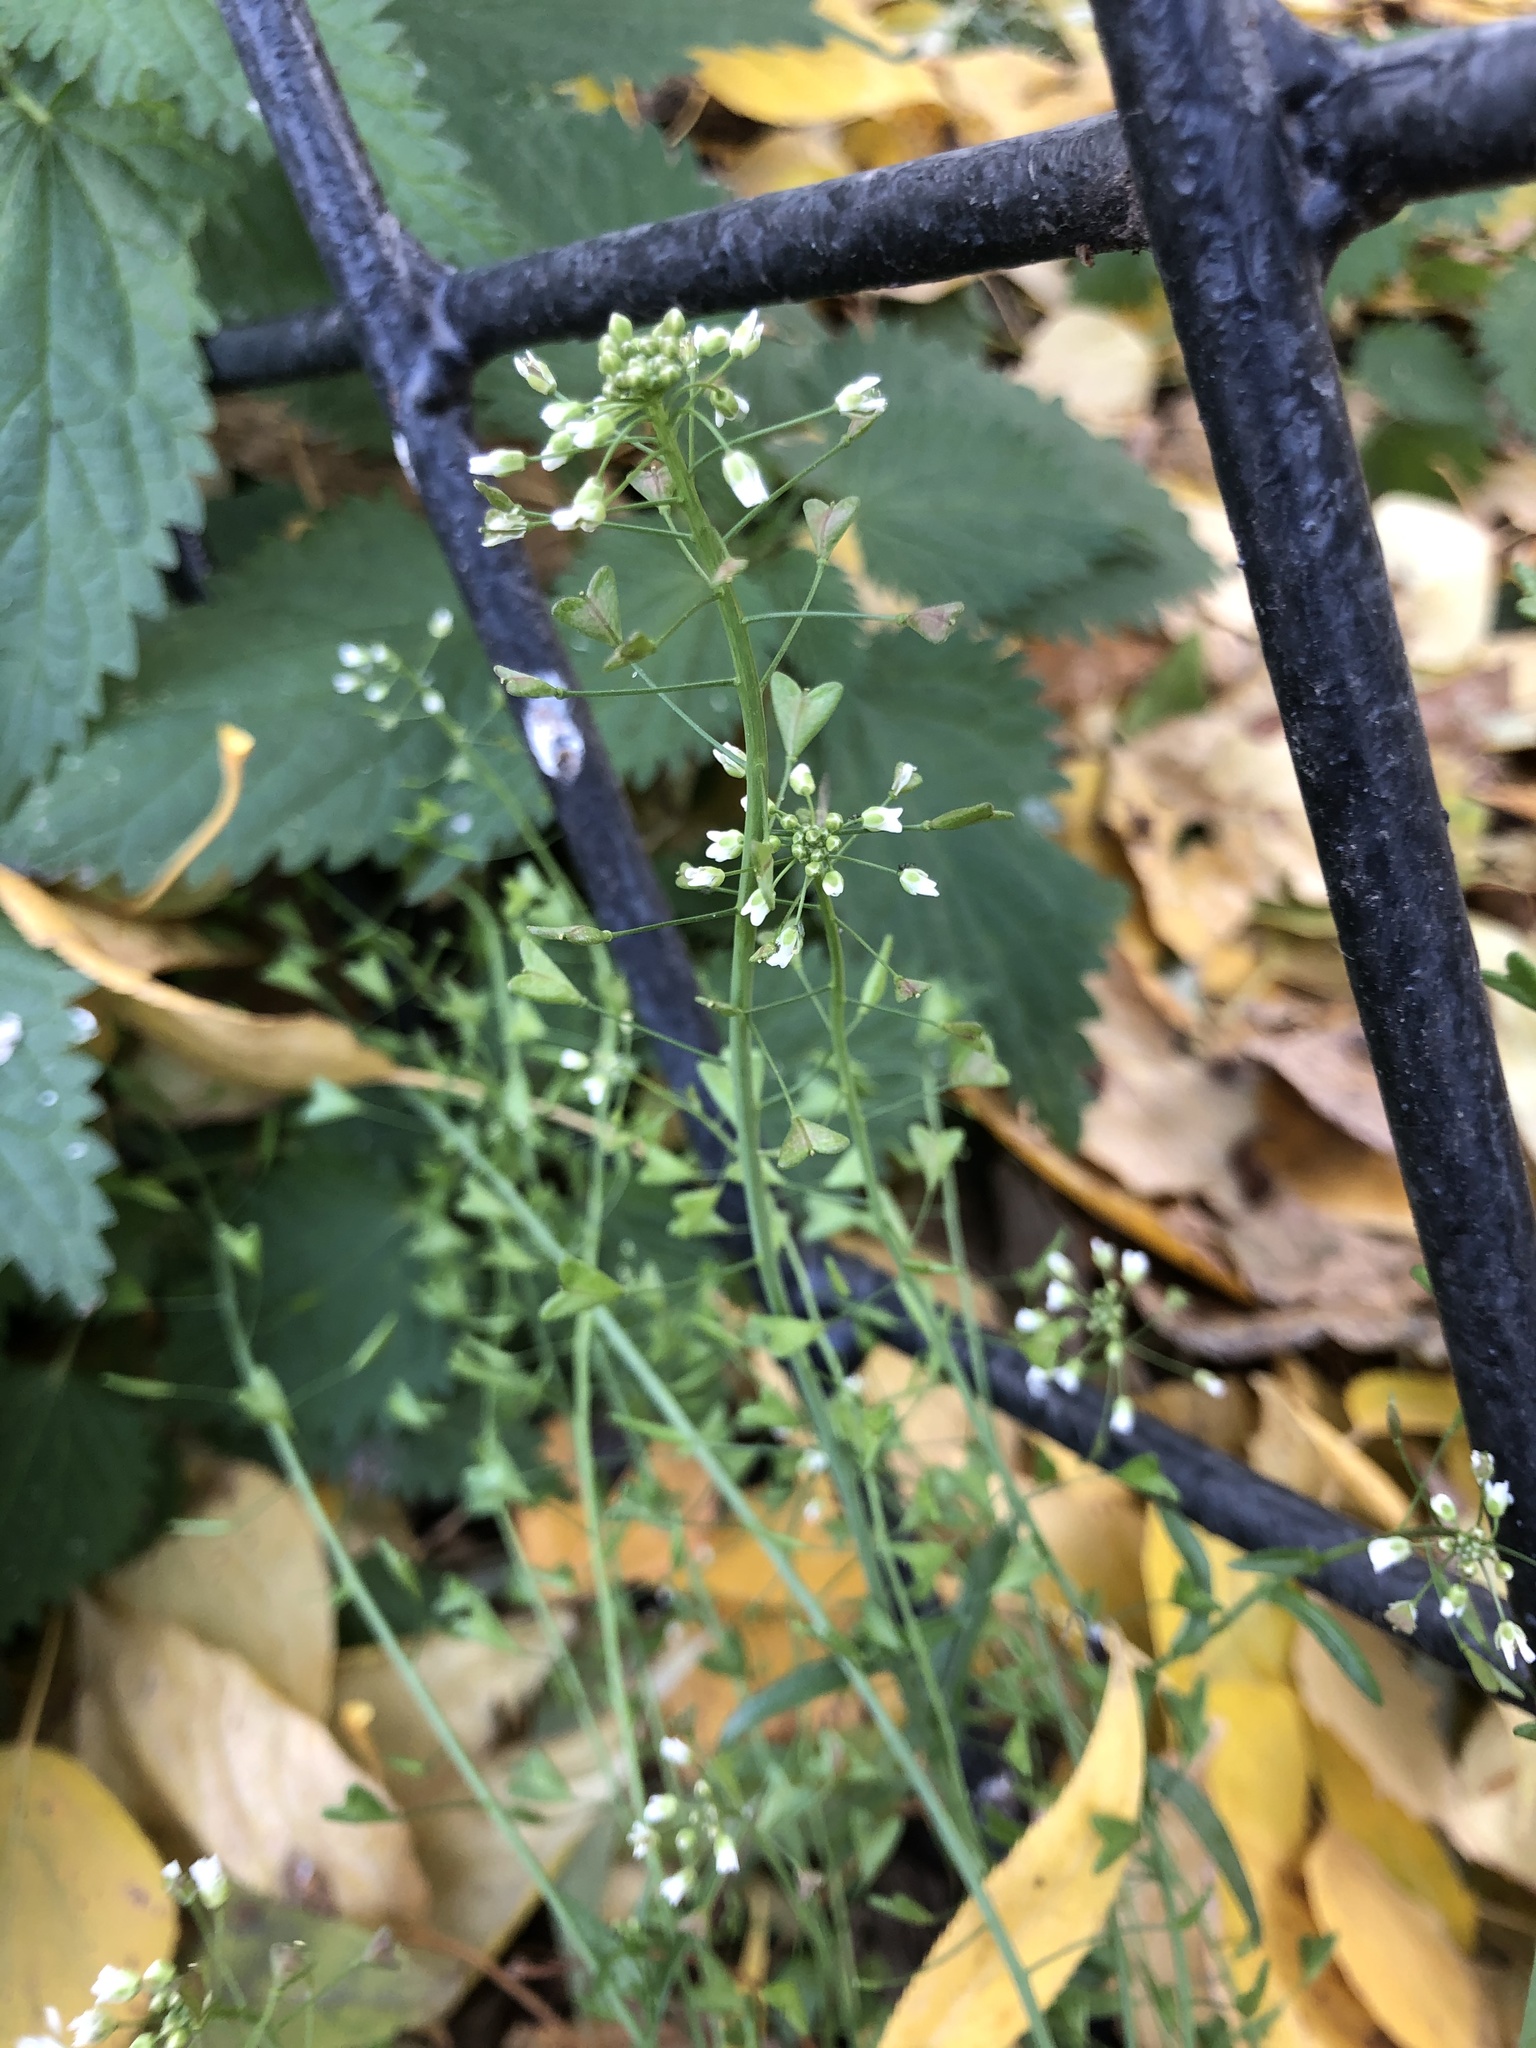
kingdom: Plantae
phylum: Tracheophyta
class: Magnoliopsida
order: Brassicales
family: Brassicaceae
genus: Capsella
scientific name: Capsella bursa-pastoris
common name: Shepherd's purse
